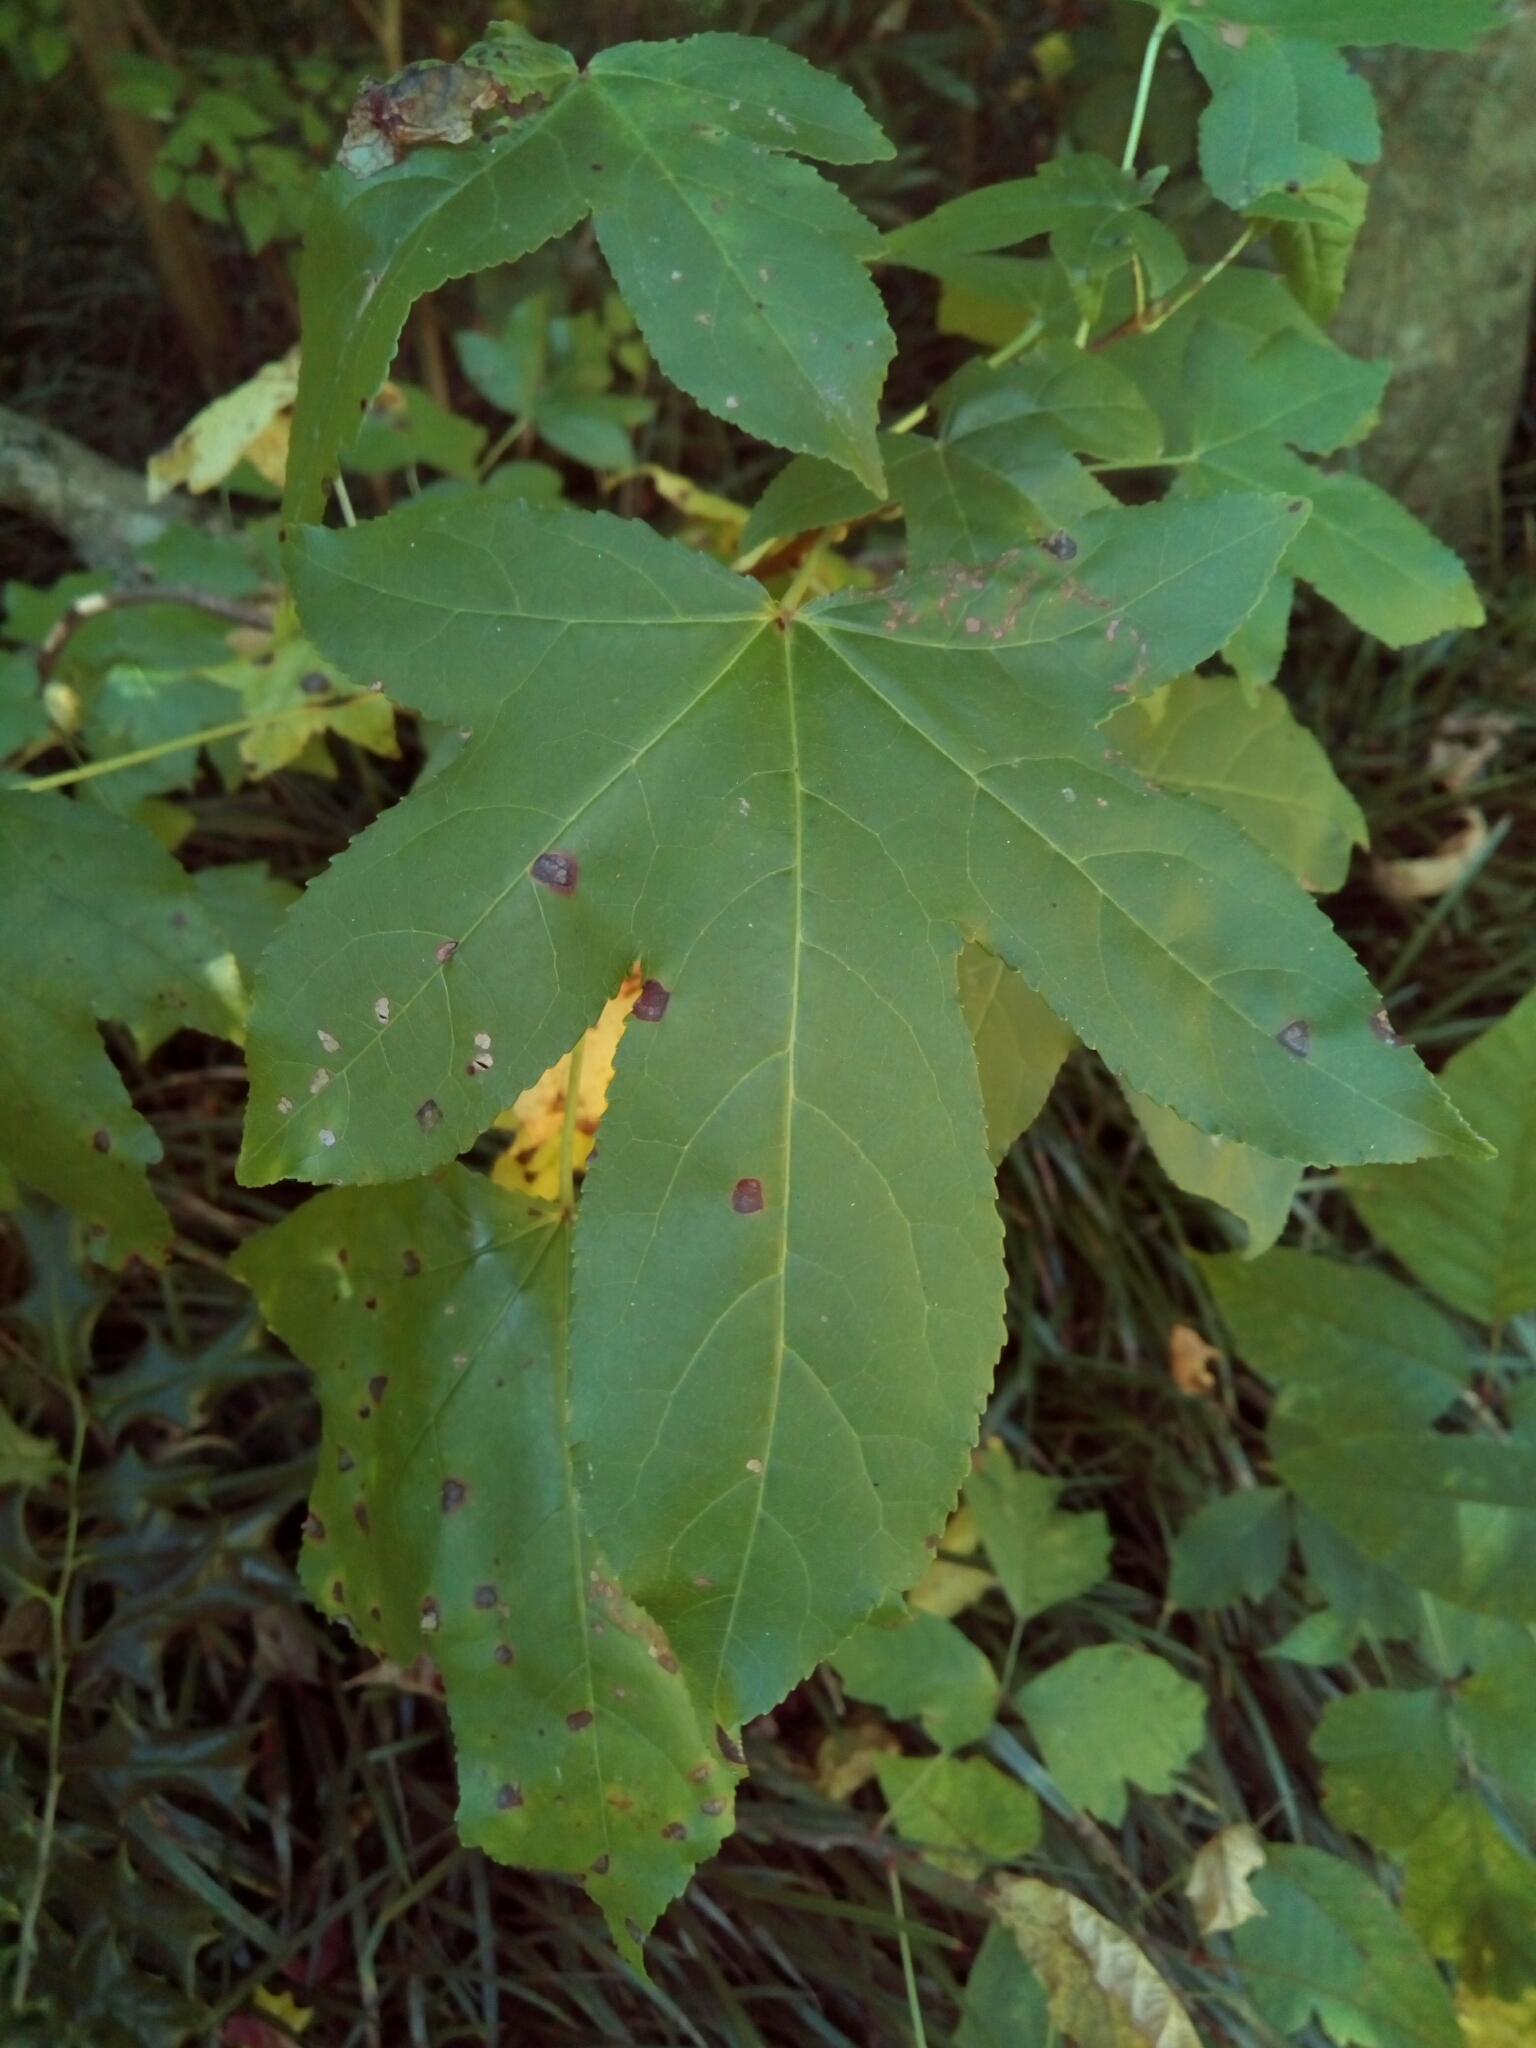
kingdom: Plantae
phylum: Tracheophyta
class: Magnoliopsida
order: Saxifragales
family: Altingiaceae
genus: Liquidambar
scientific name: Liquidambar styraciflua
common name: Sweet gum
